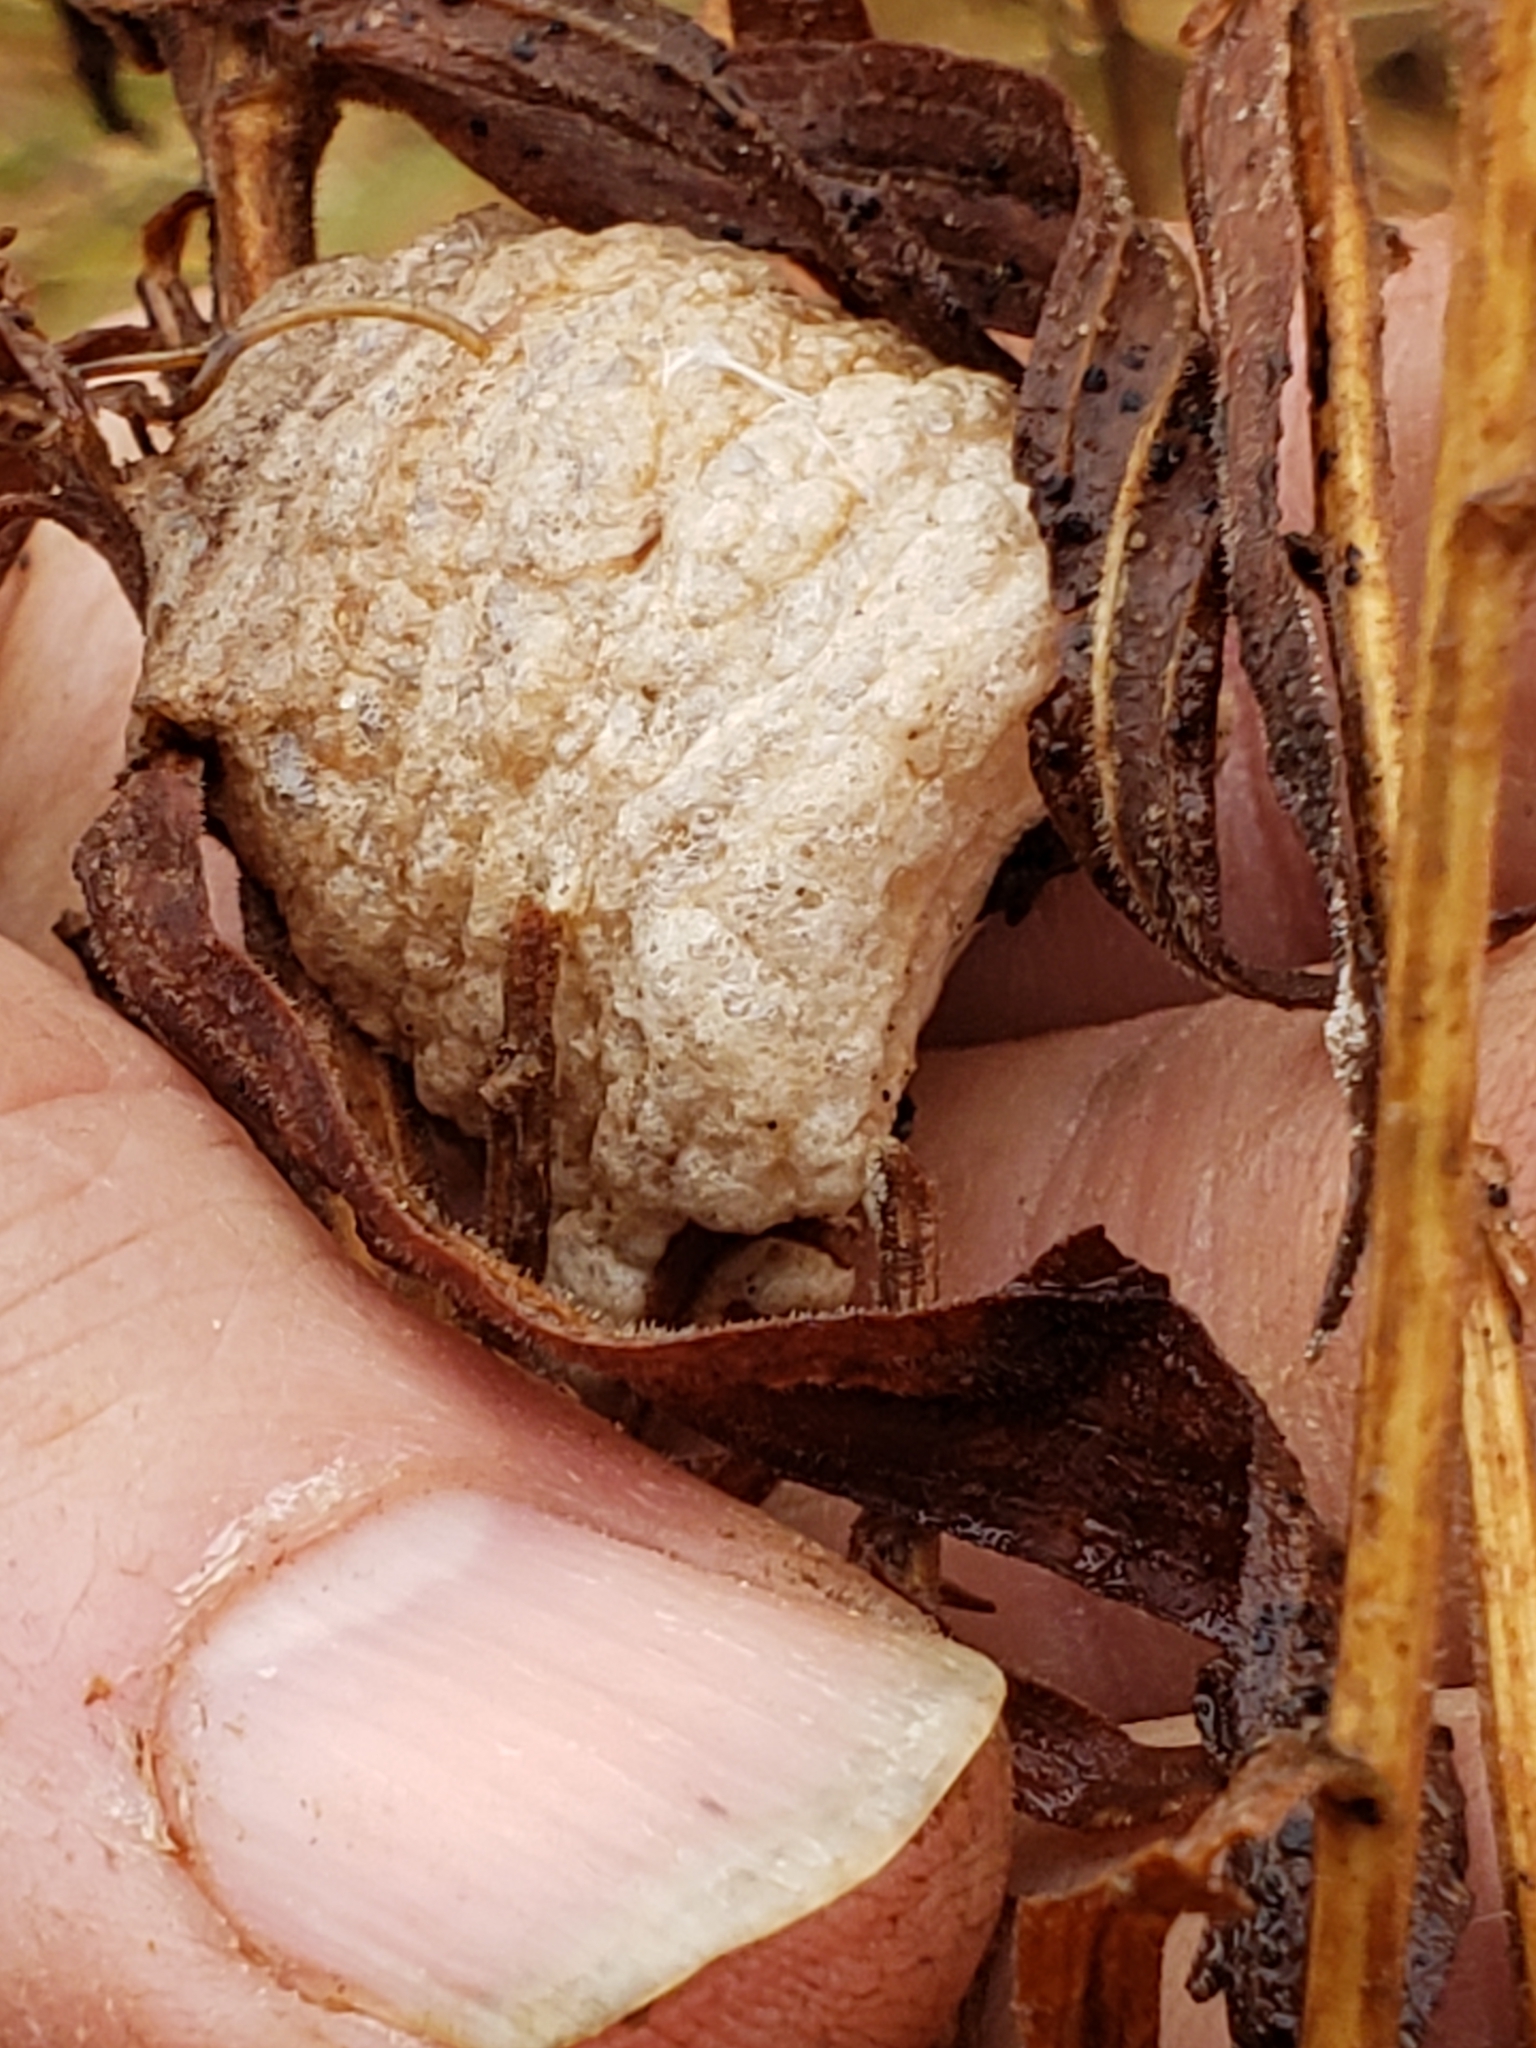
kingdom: Animalia
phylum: Arthropoda
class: Insecta
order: Mantodea
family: Mantidae
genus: Tenodera
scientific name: Tenodera sinensis
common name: Chinese mantis
